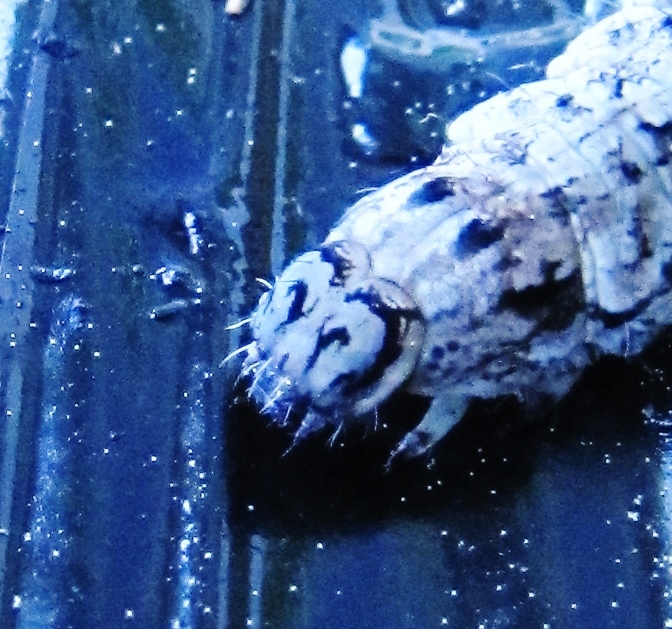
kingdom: Animalia
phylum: Arthropoda
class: Insecta
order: Lepidoptera
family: Erebidae
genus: Catocala
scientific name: Catocala ilia
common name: Ilia underwing
